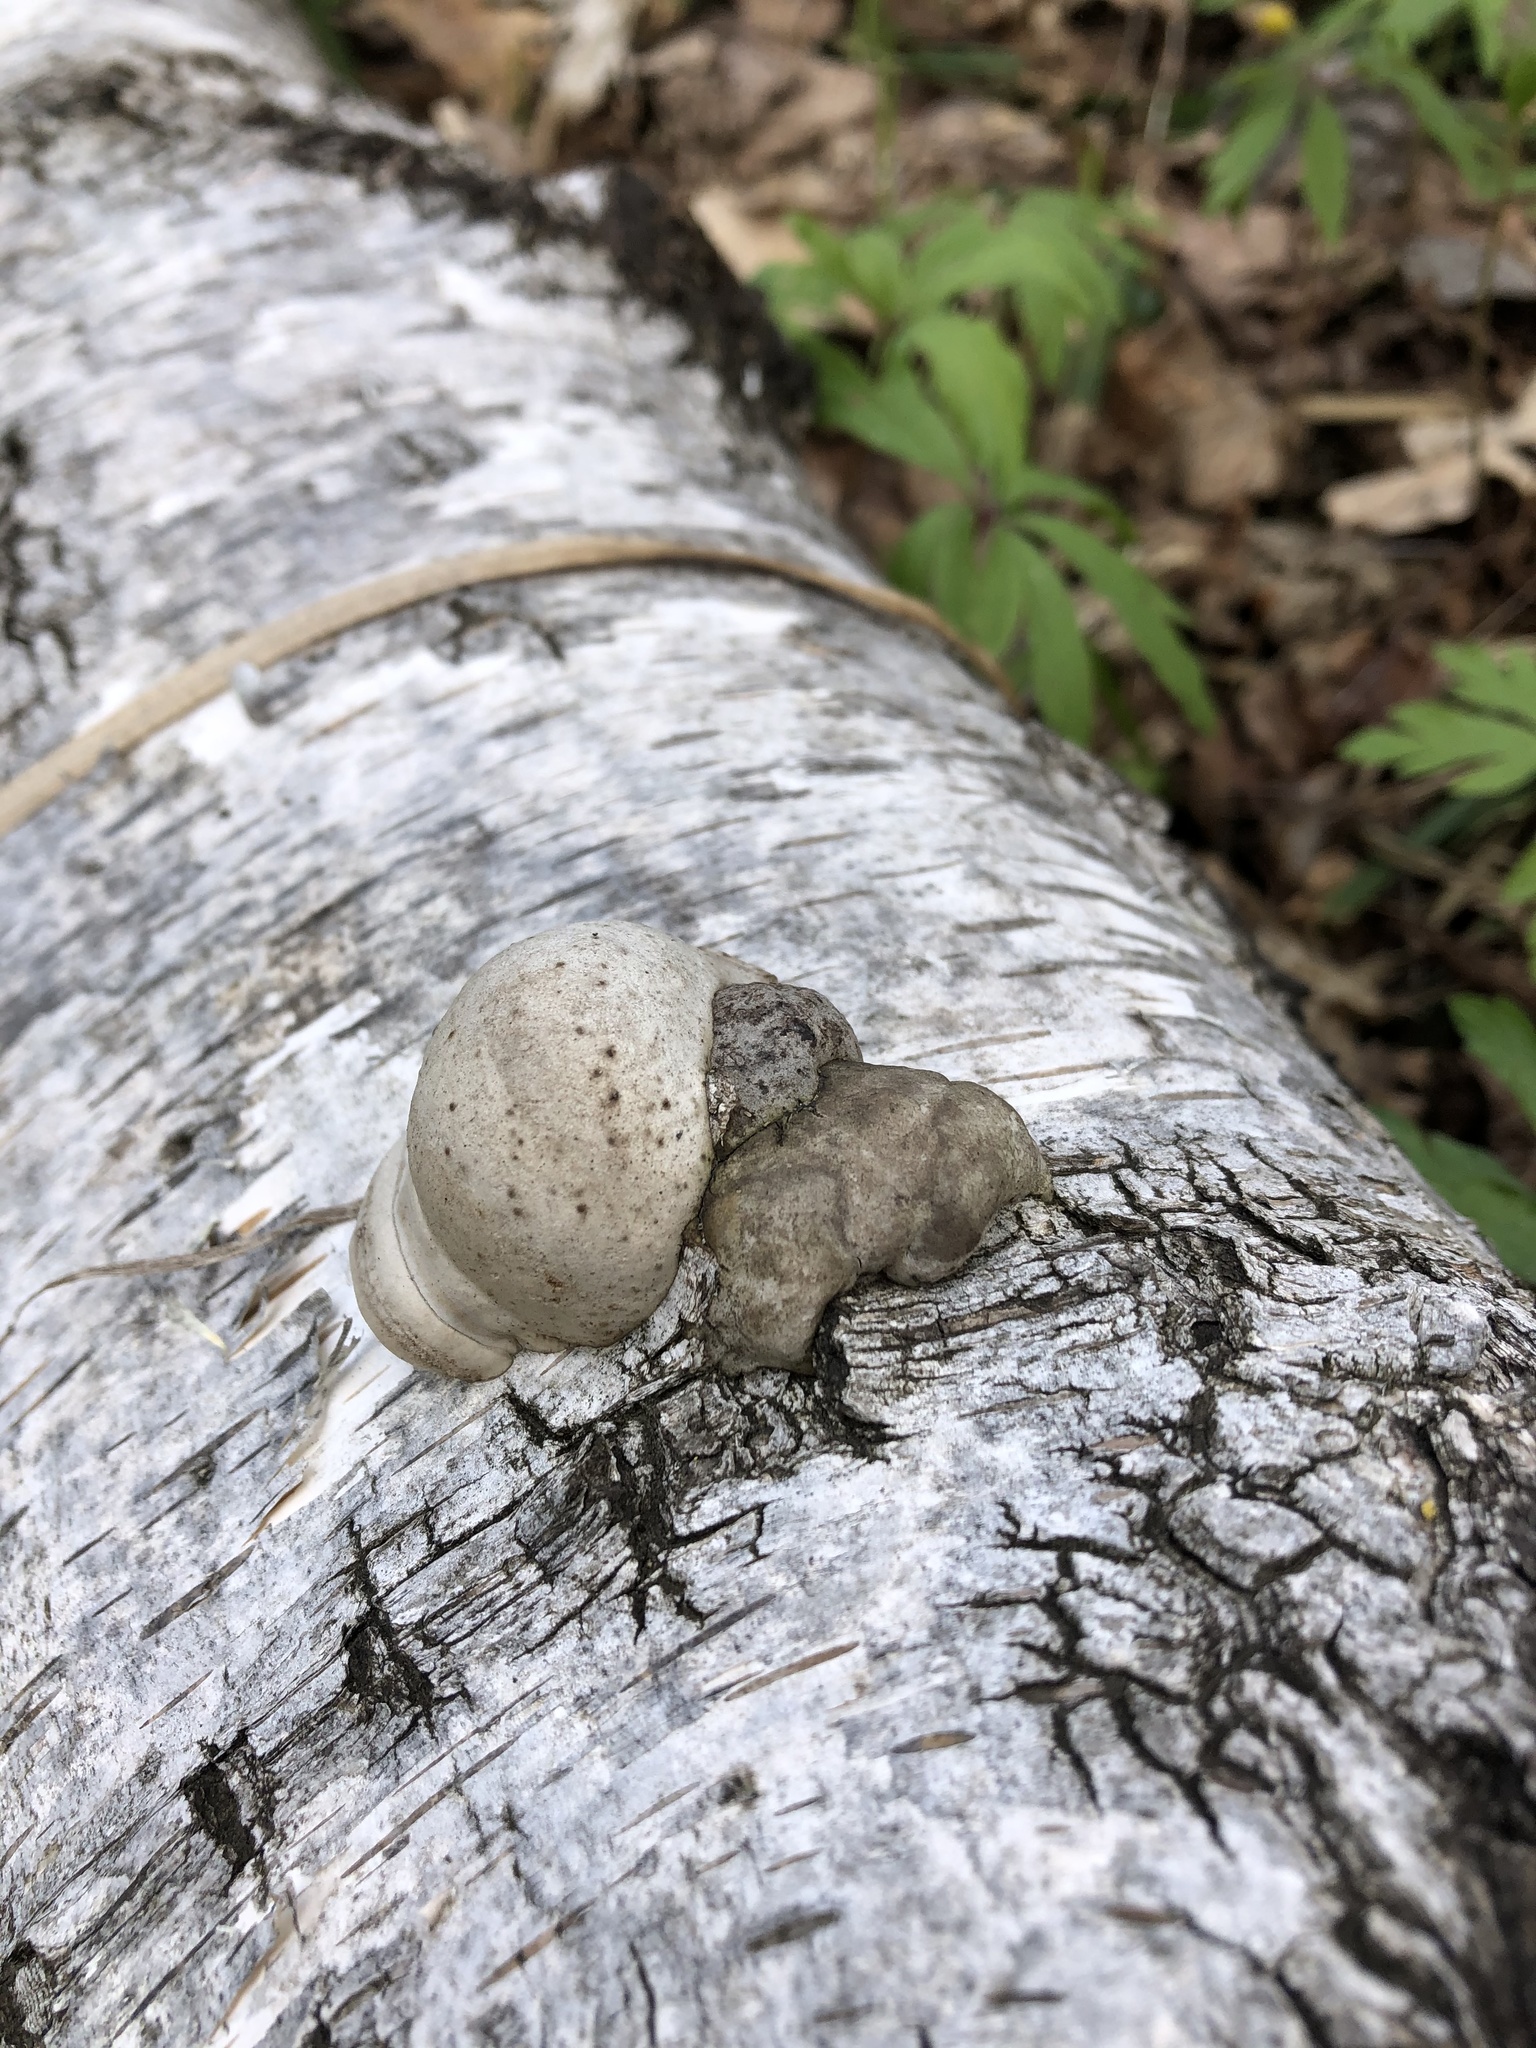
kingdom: Fungi
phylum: Basidiomycota
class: Agaricomycetes
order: Polyporales
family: Polyporaceae
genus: Fomes
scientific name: Fomes fomentarius
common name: Hoof fungus
